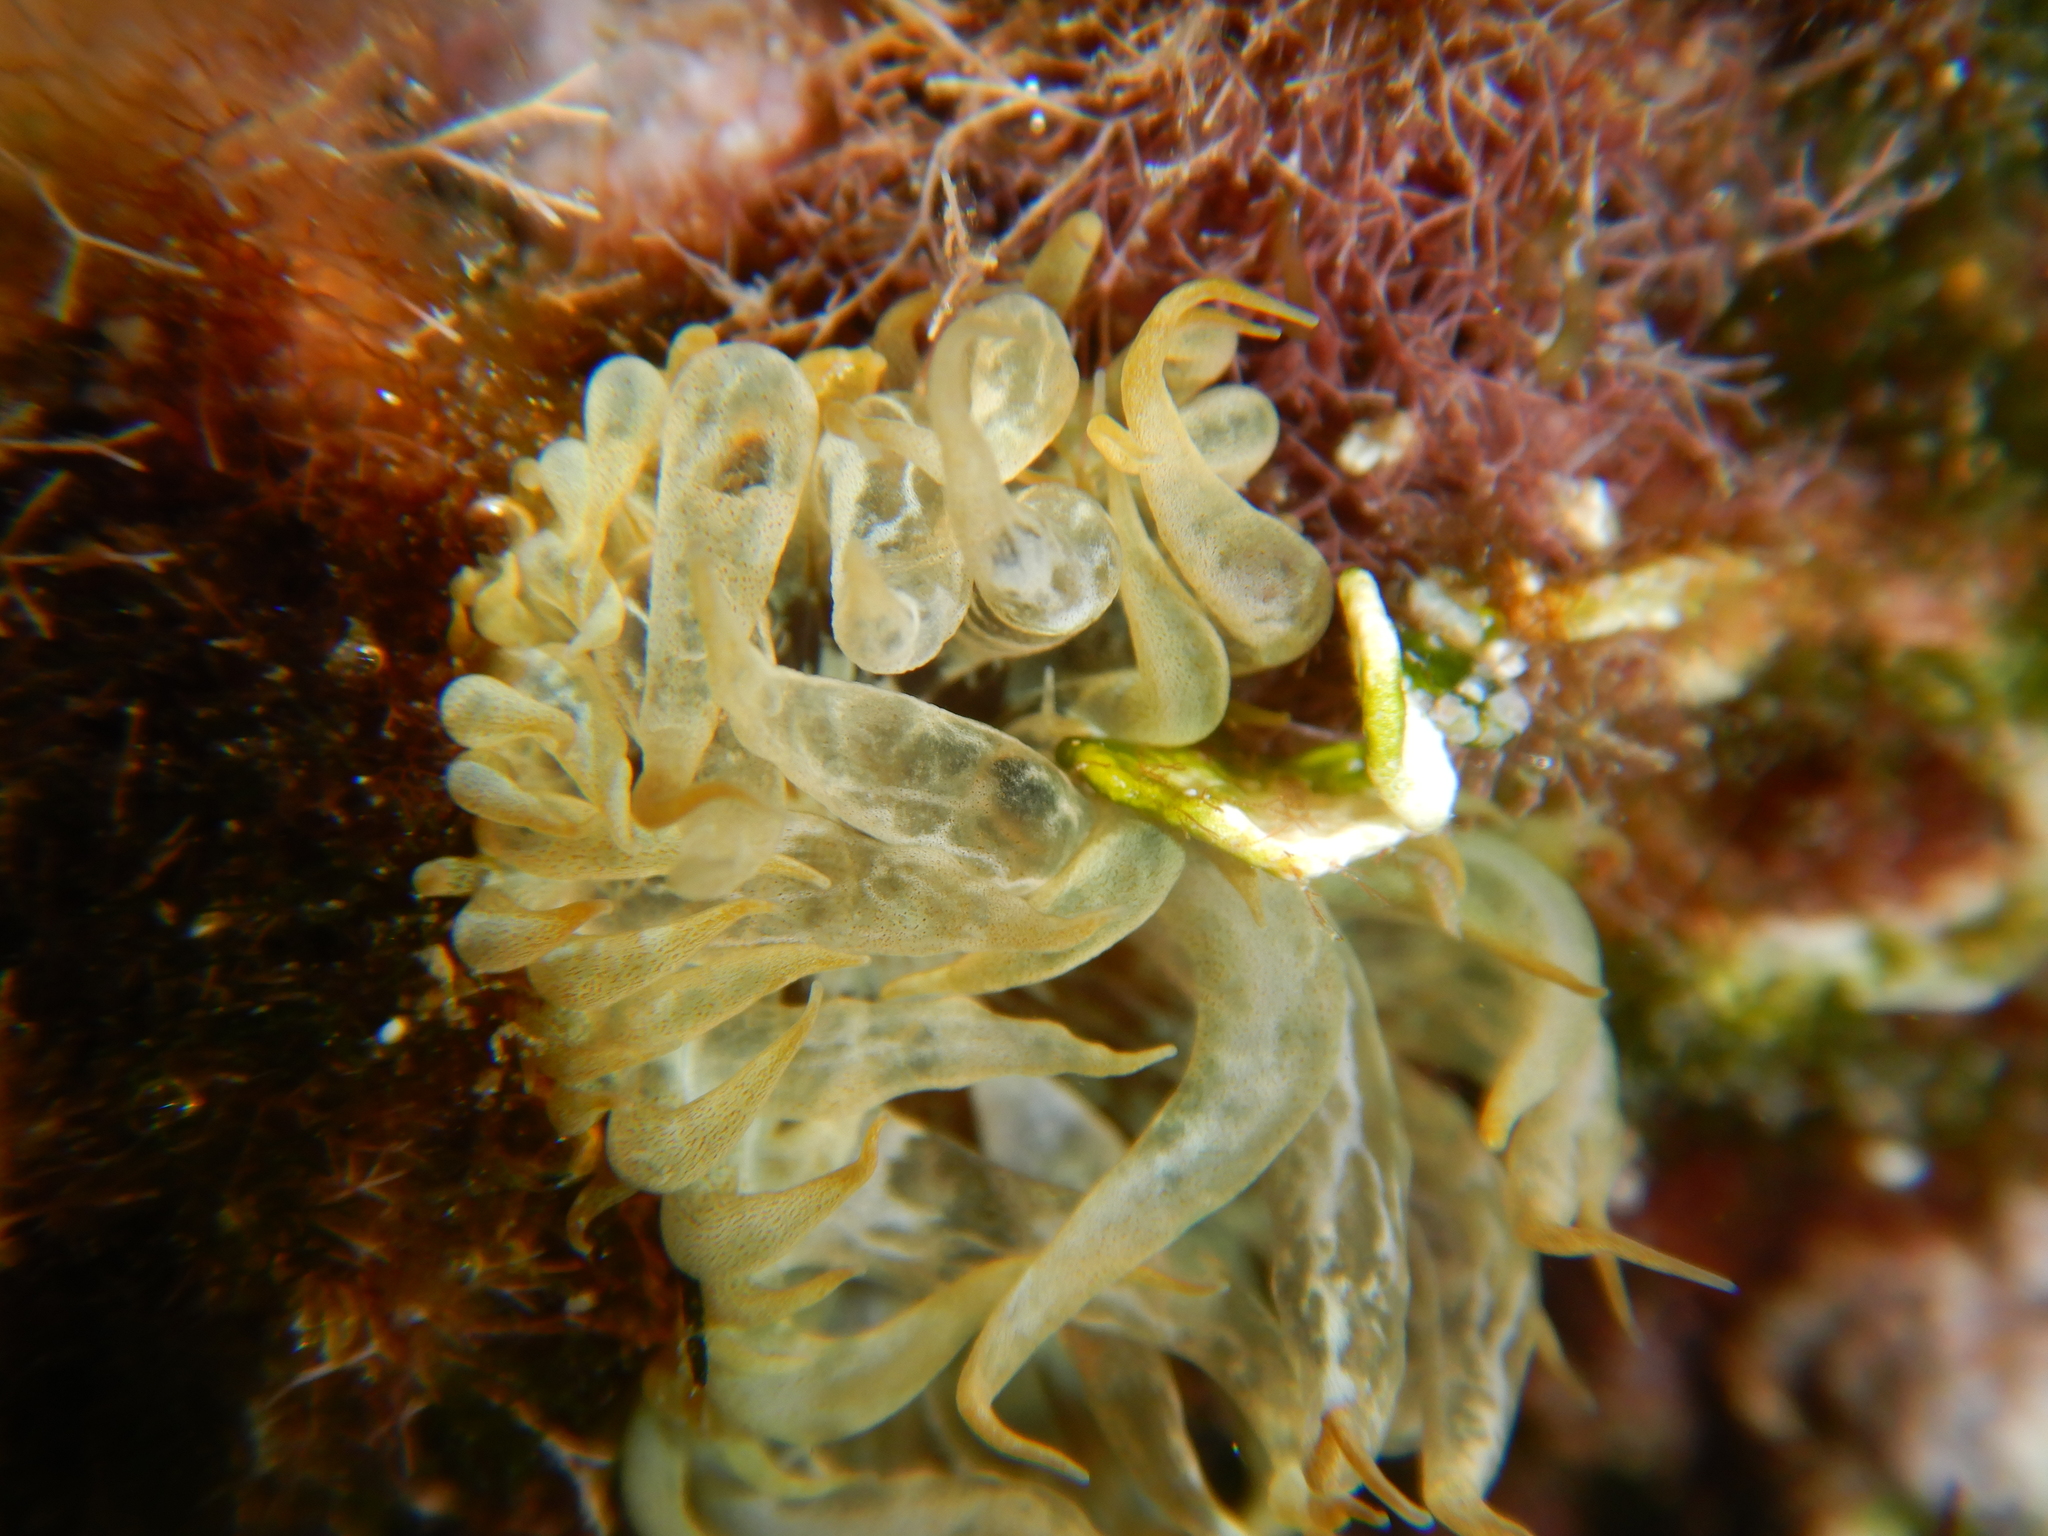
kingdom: Animalia
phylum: Cnidaria
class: Anthozoa
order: Actiniaria
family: Aiptasiidae
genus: Aiptasia
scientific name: Aiptasia mutabilis
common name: Trumpet anemone
